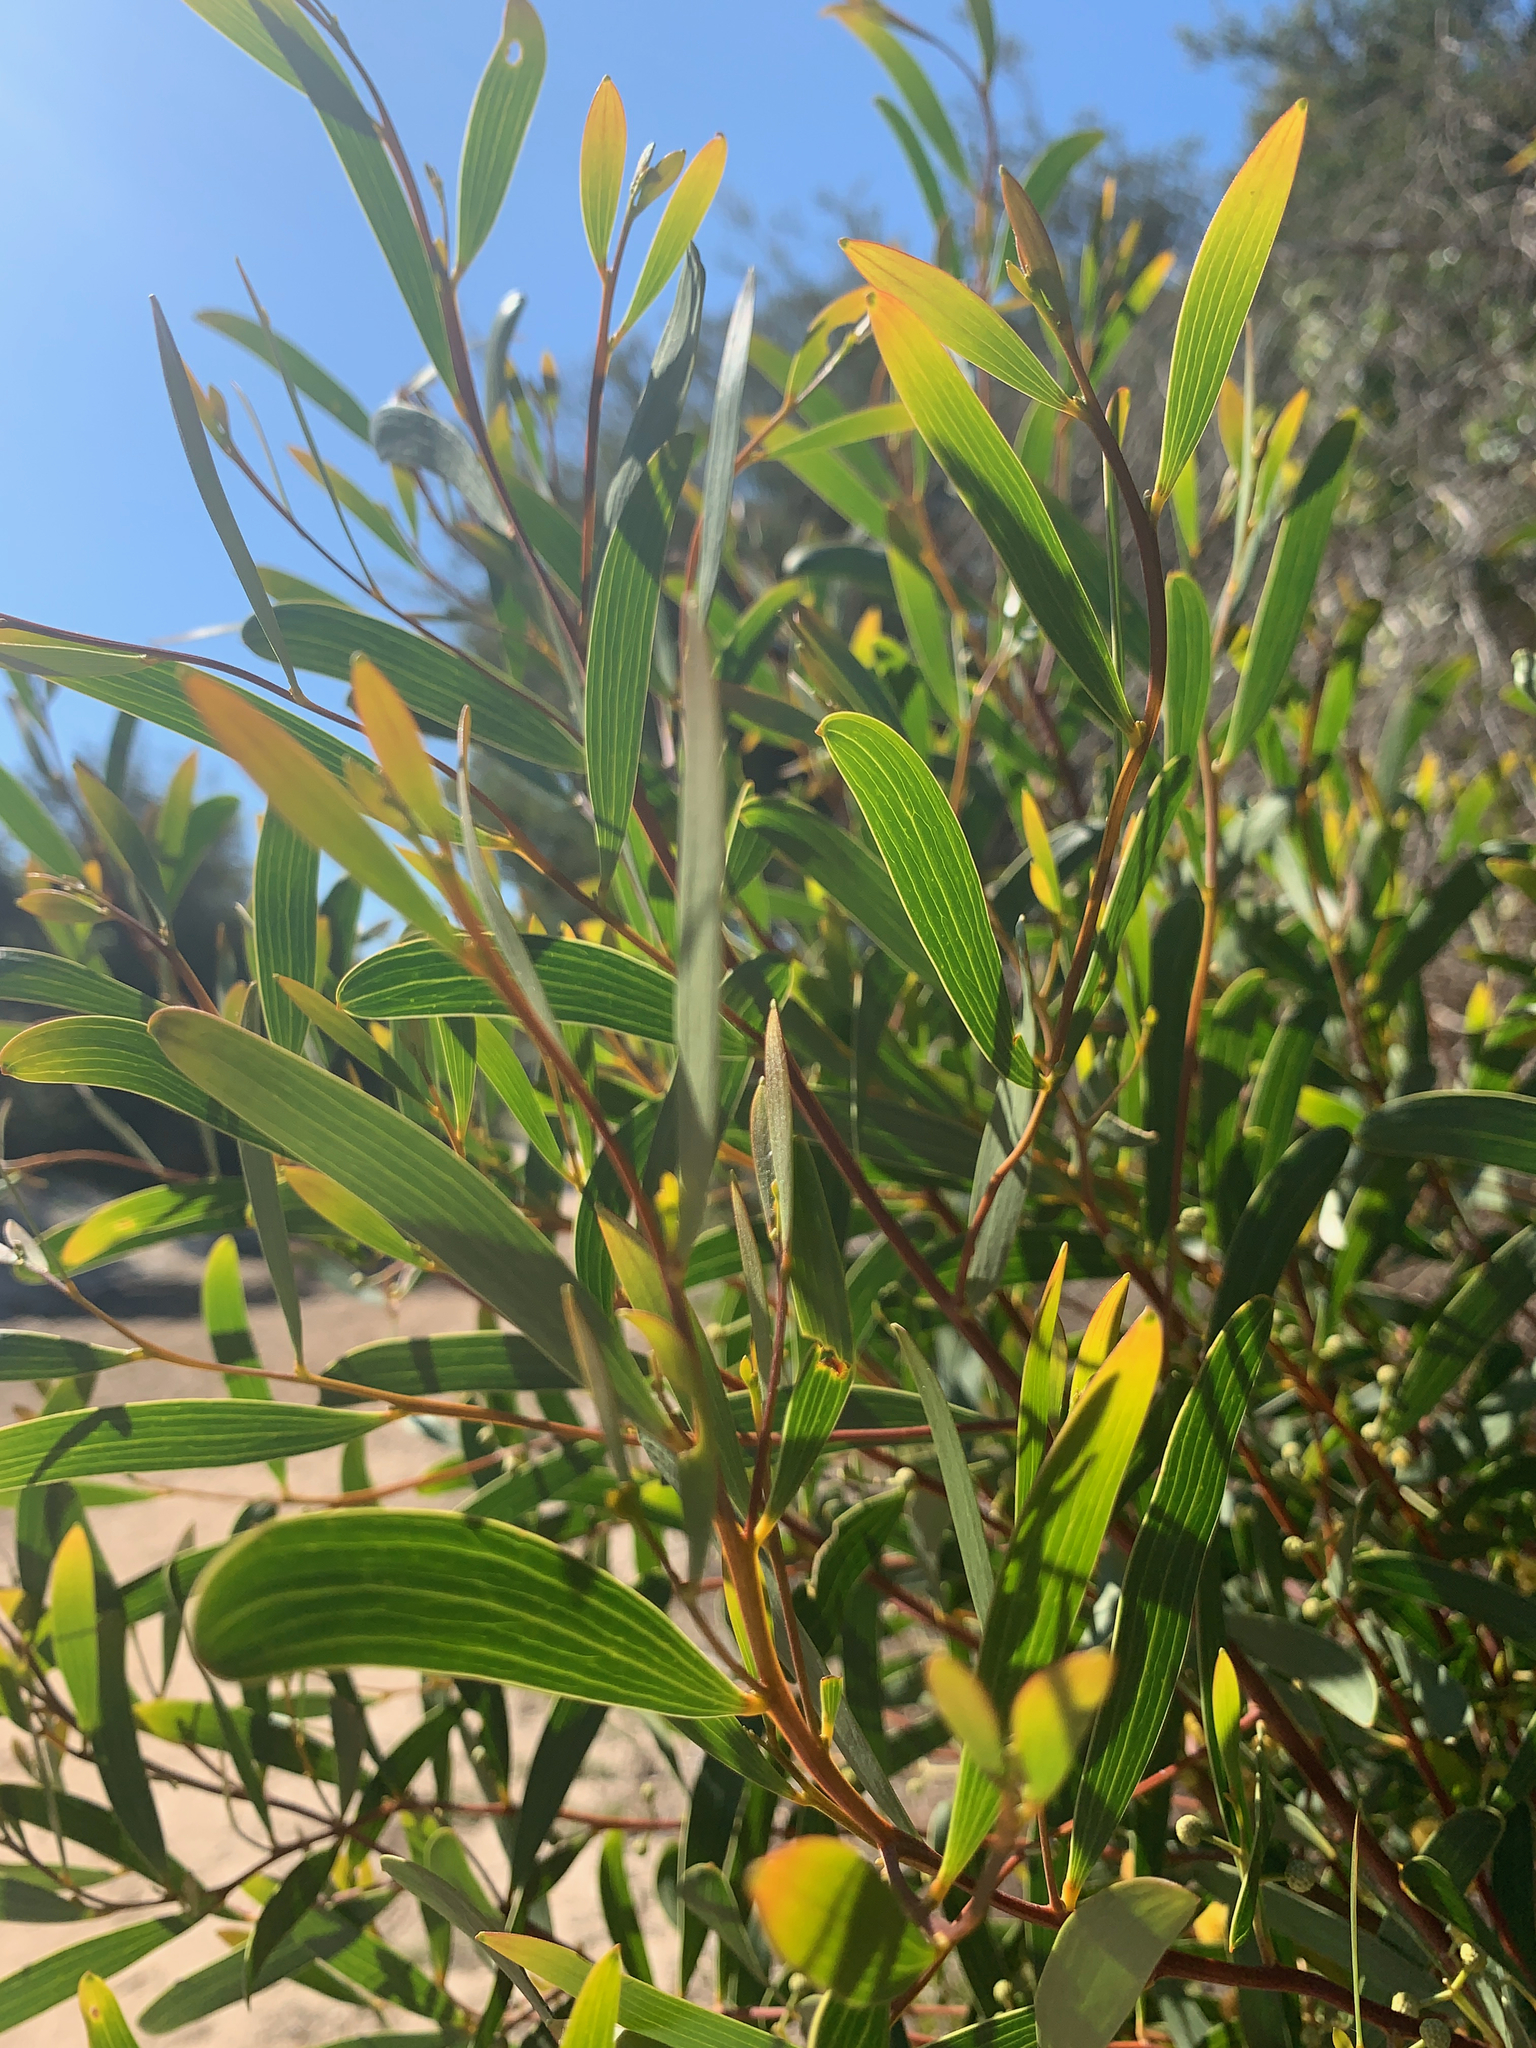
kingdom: Plantae
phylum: Tracheophyta
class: Magnoliopsida
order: Fabales
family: Fabaceae
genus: Acacia
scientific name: Acacia cyclops
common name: Coastal wattle
